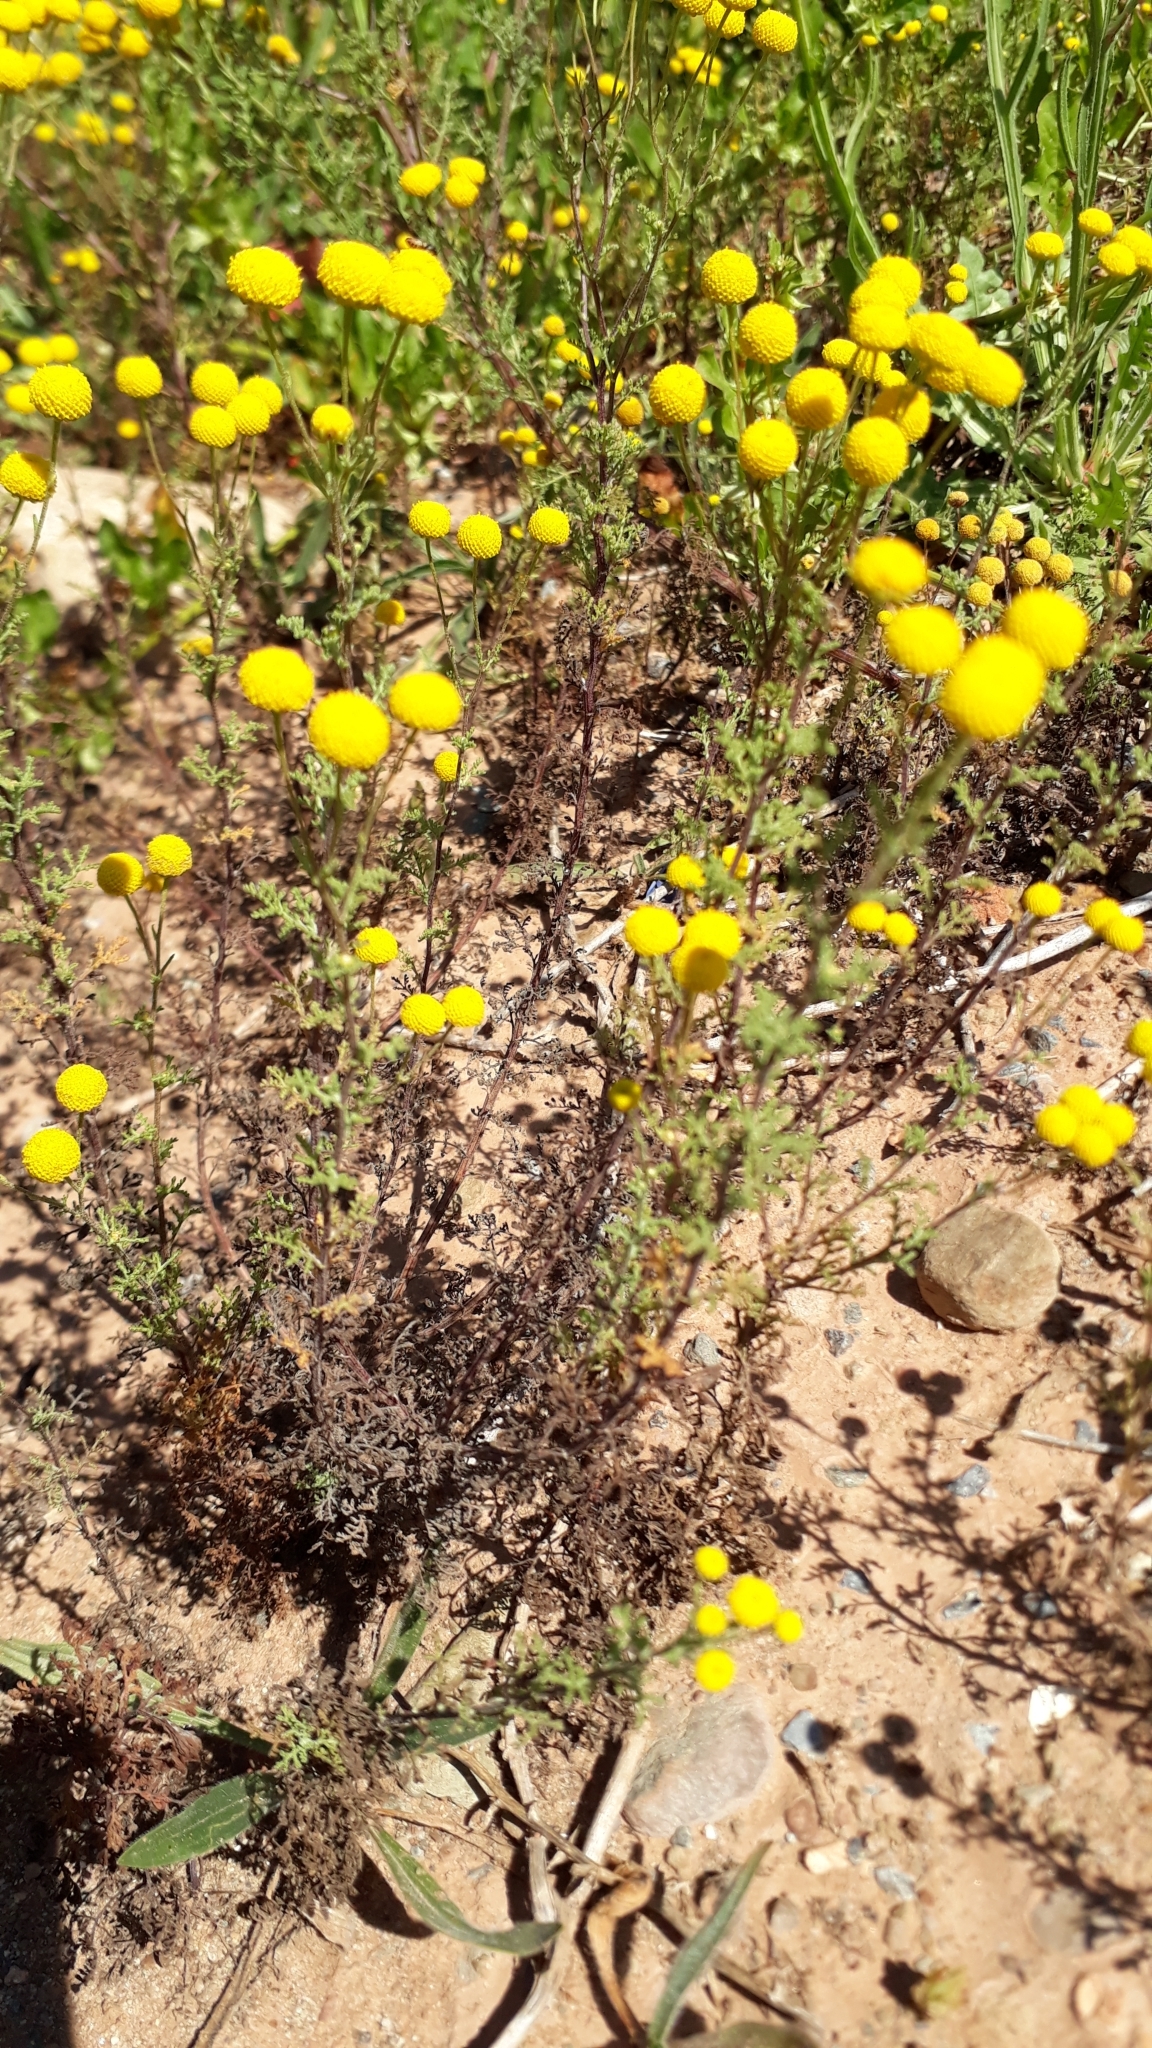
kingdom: Plantae
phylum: Tracheophyta
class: Magnoliopsida
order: Asterales
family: Asteraceae
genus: Oncosiphon
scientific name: Oncosiphon pilulifer
